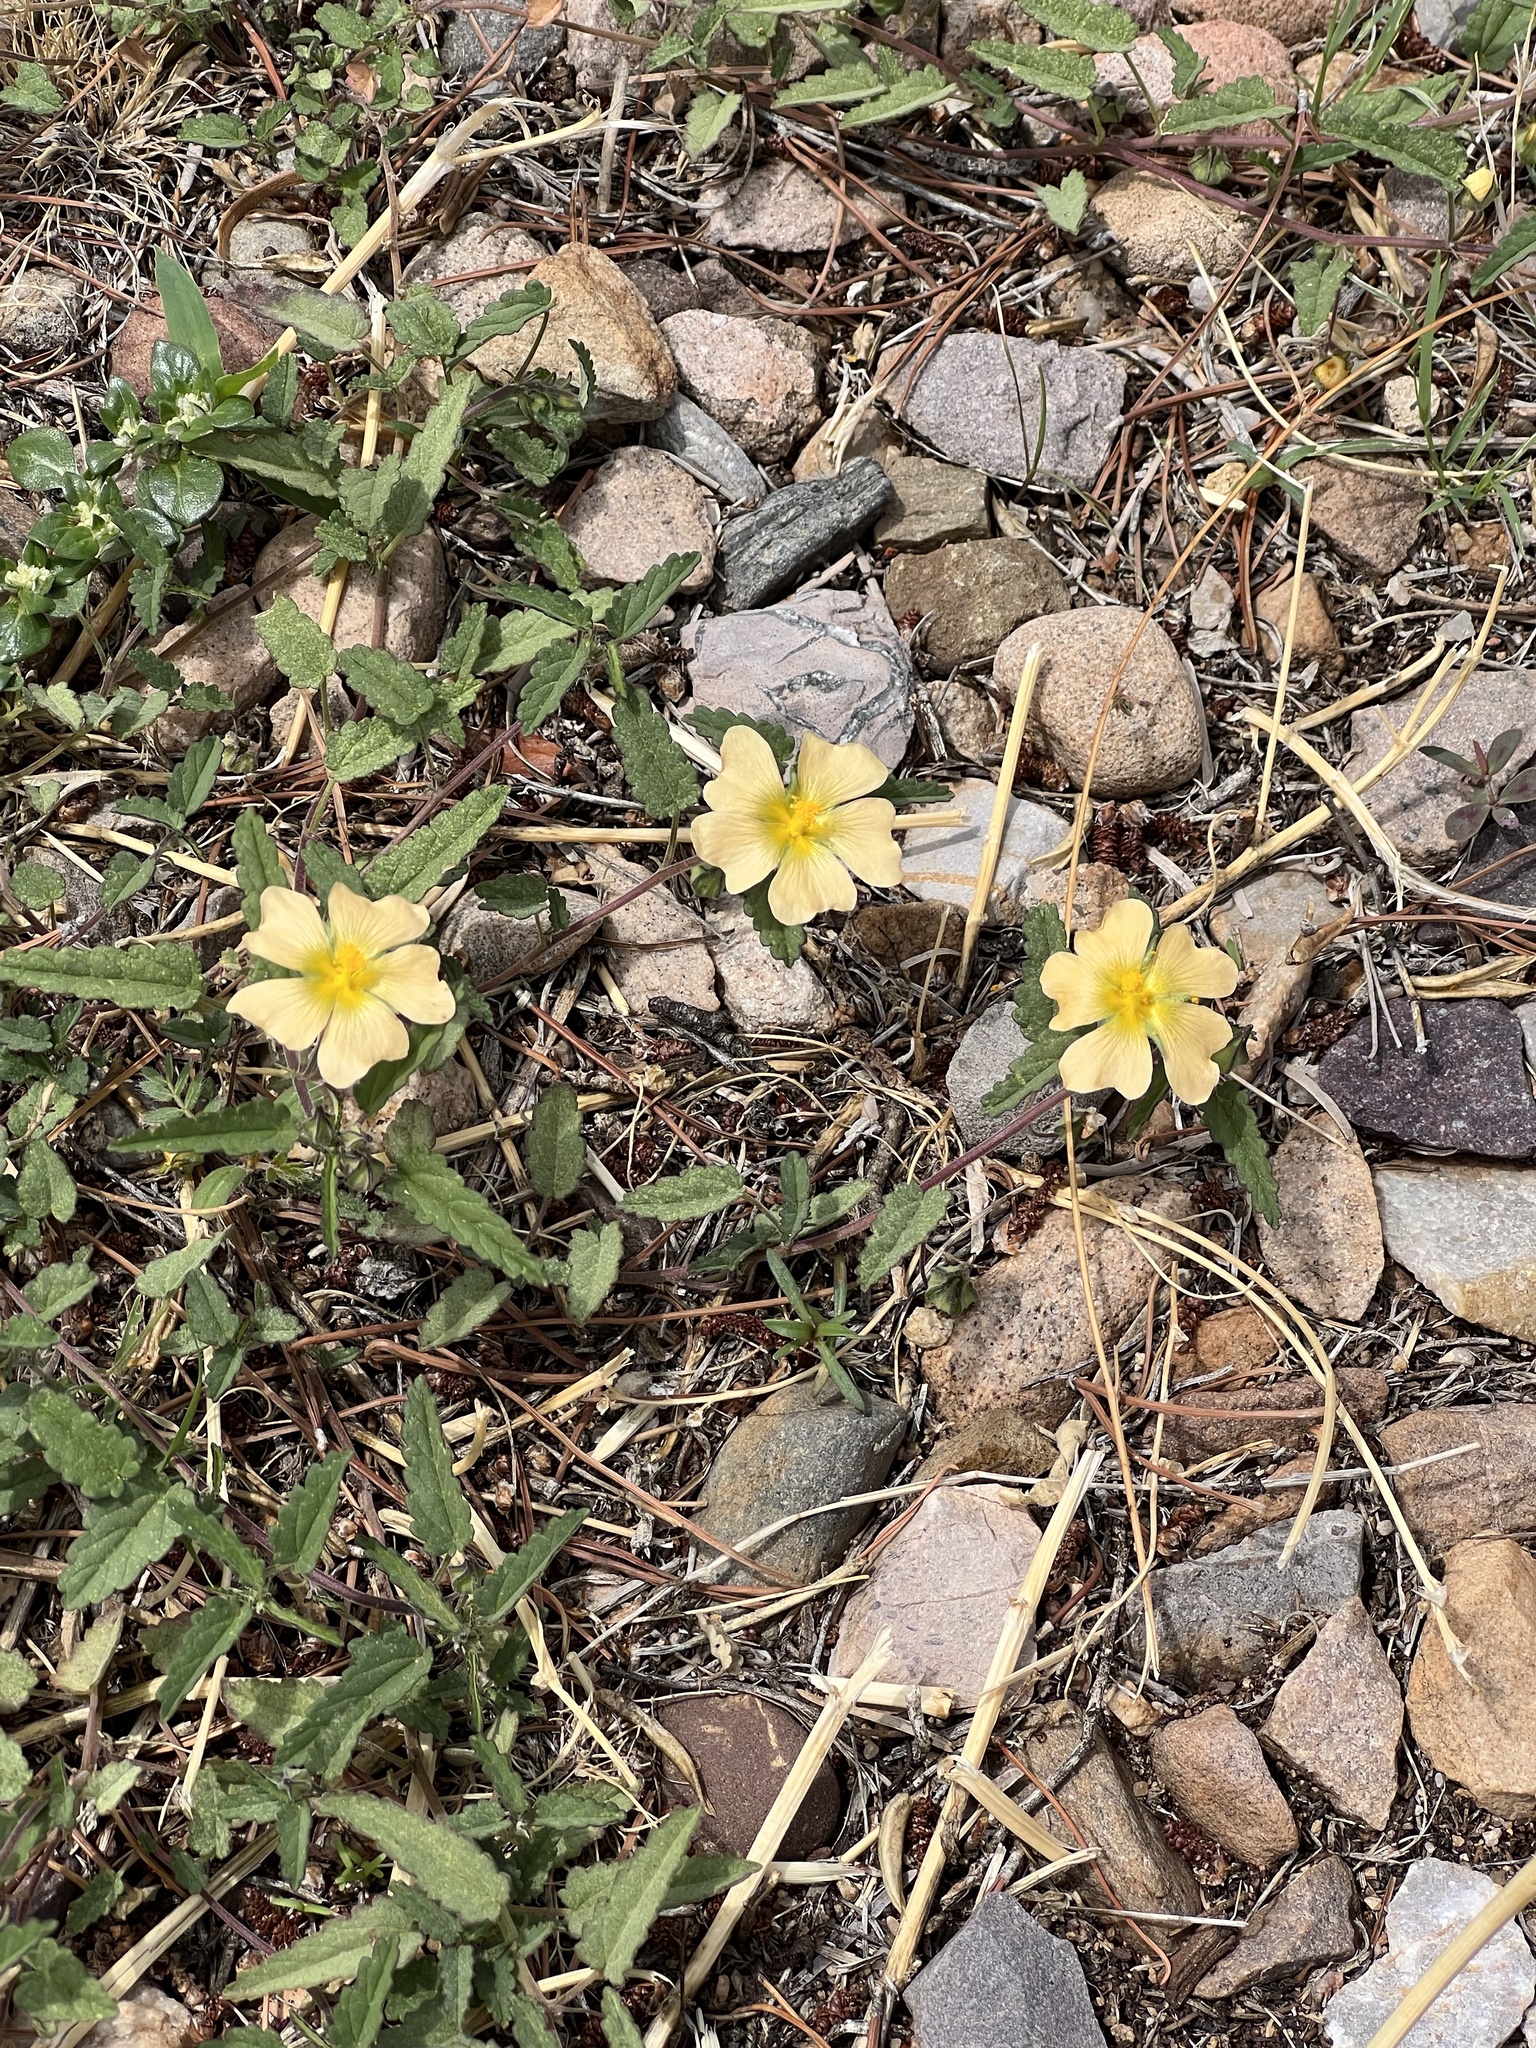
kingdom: Plantae
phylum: Tracheophyta
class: Magnoliopsida
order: Malvales
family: Malvaceae
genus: Sida
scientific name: Sida abutilifolia
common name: Spreading fanpetals
